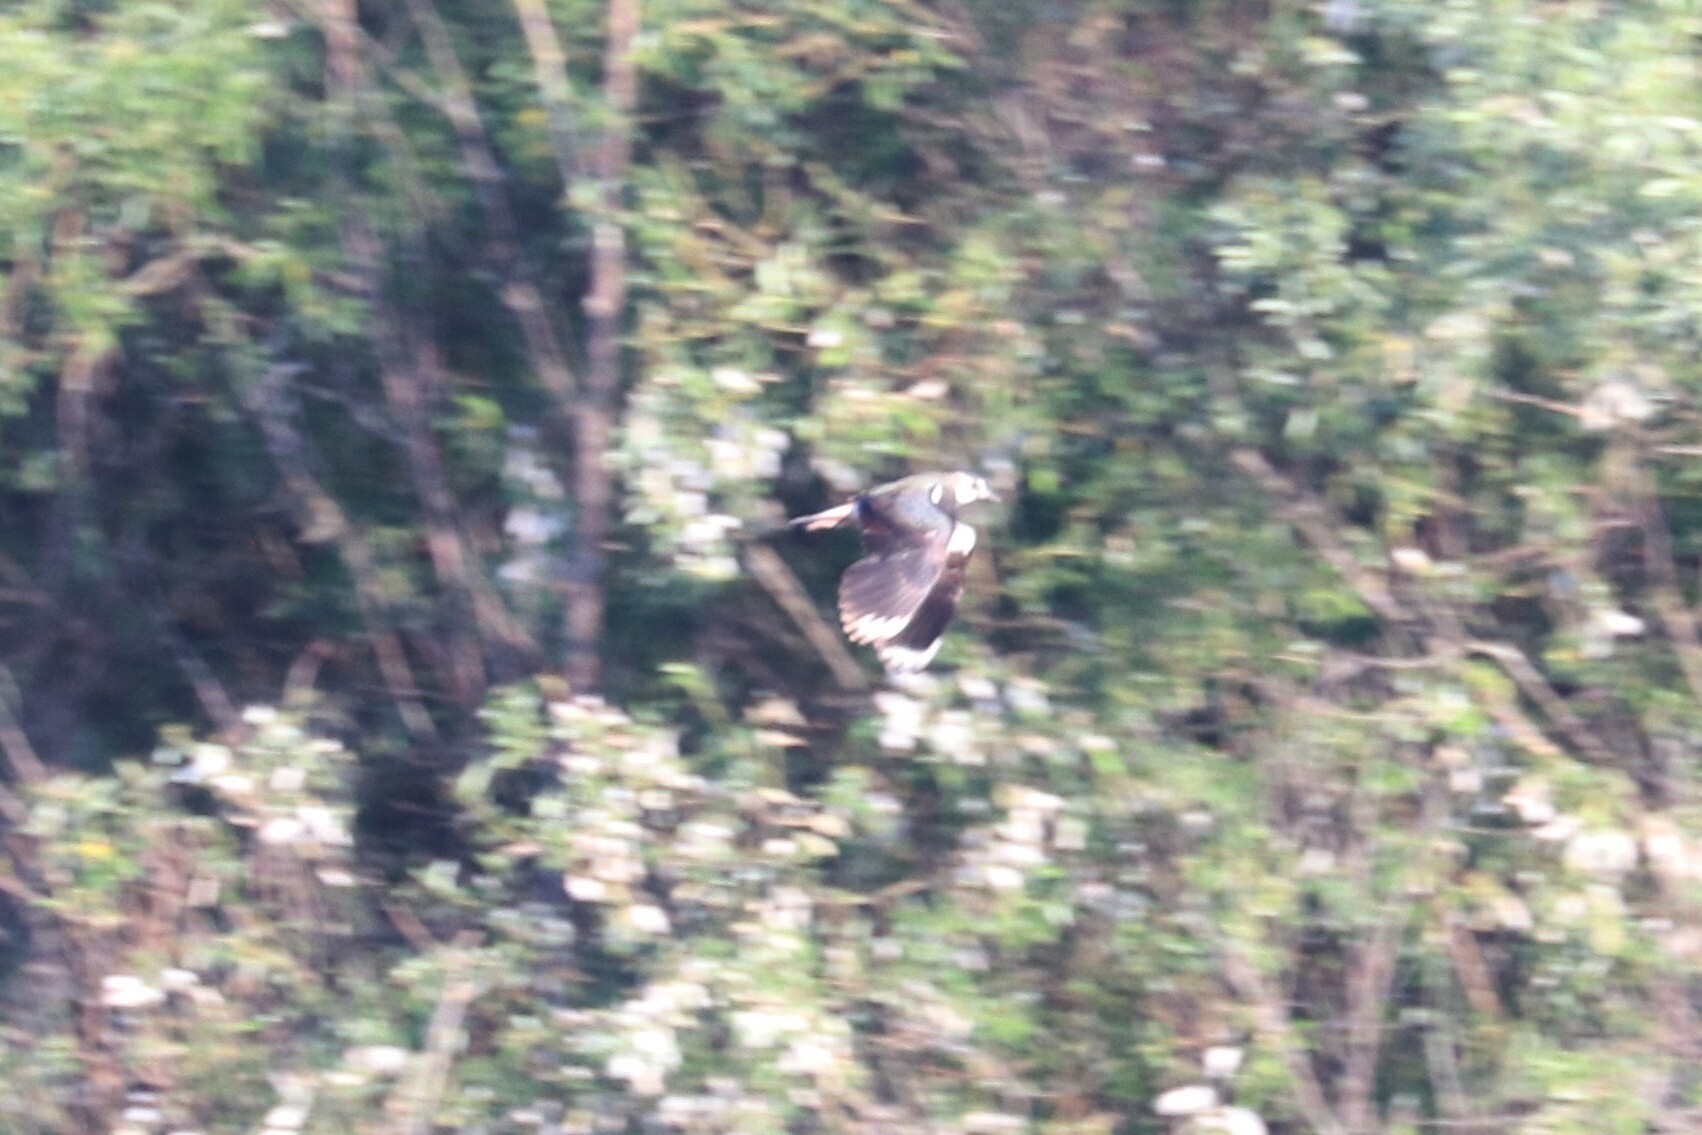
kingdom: Animalia
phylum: Chordata
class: Aves
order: Charadriiformes
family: Charadriidae
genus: Vanellus
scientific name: Vanellus vanellus
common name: Northern lapwing
